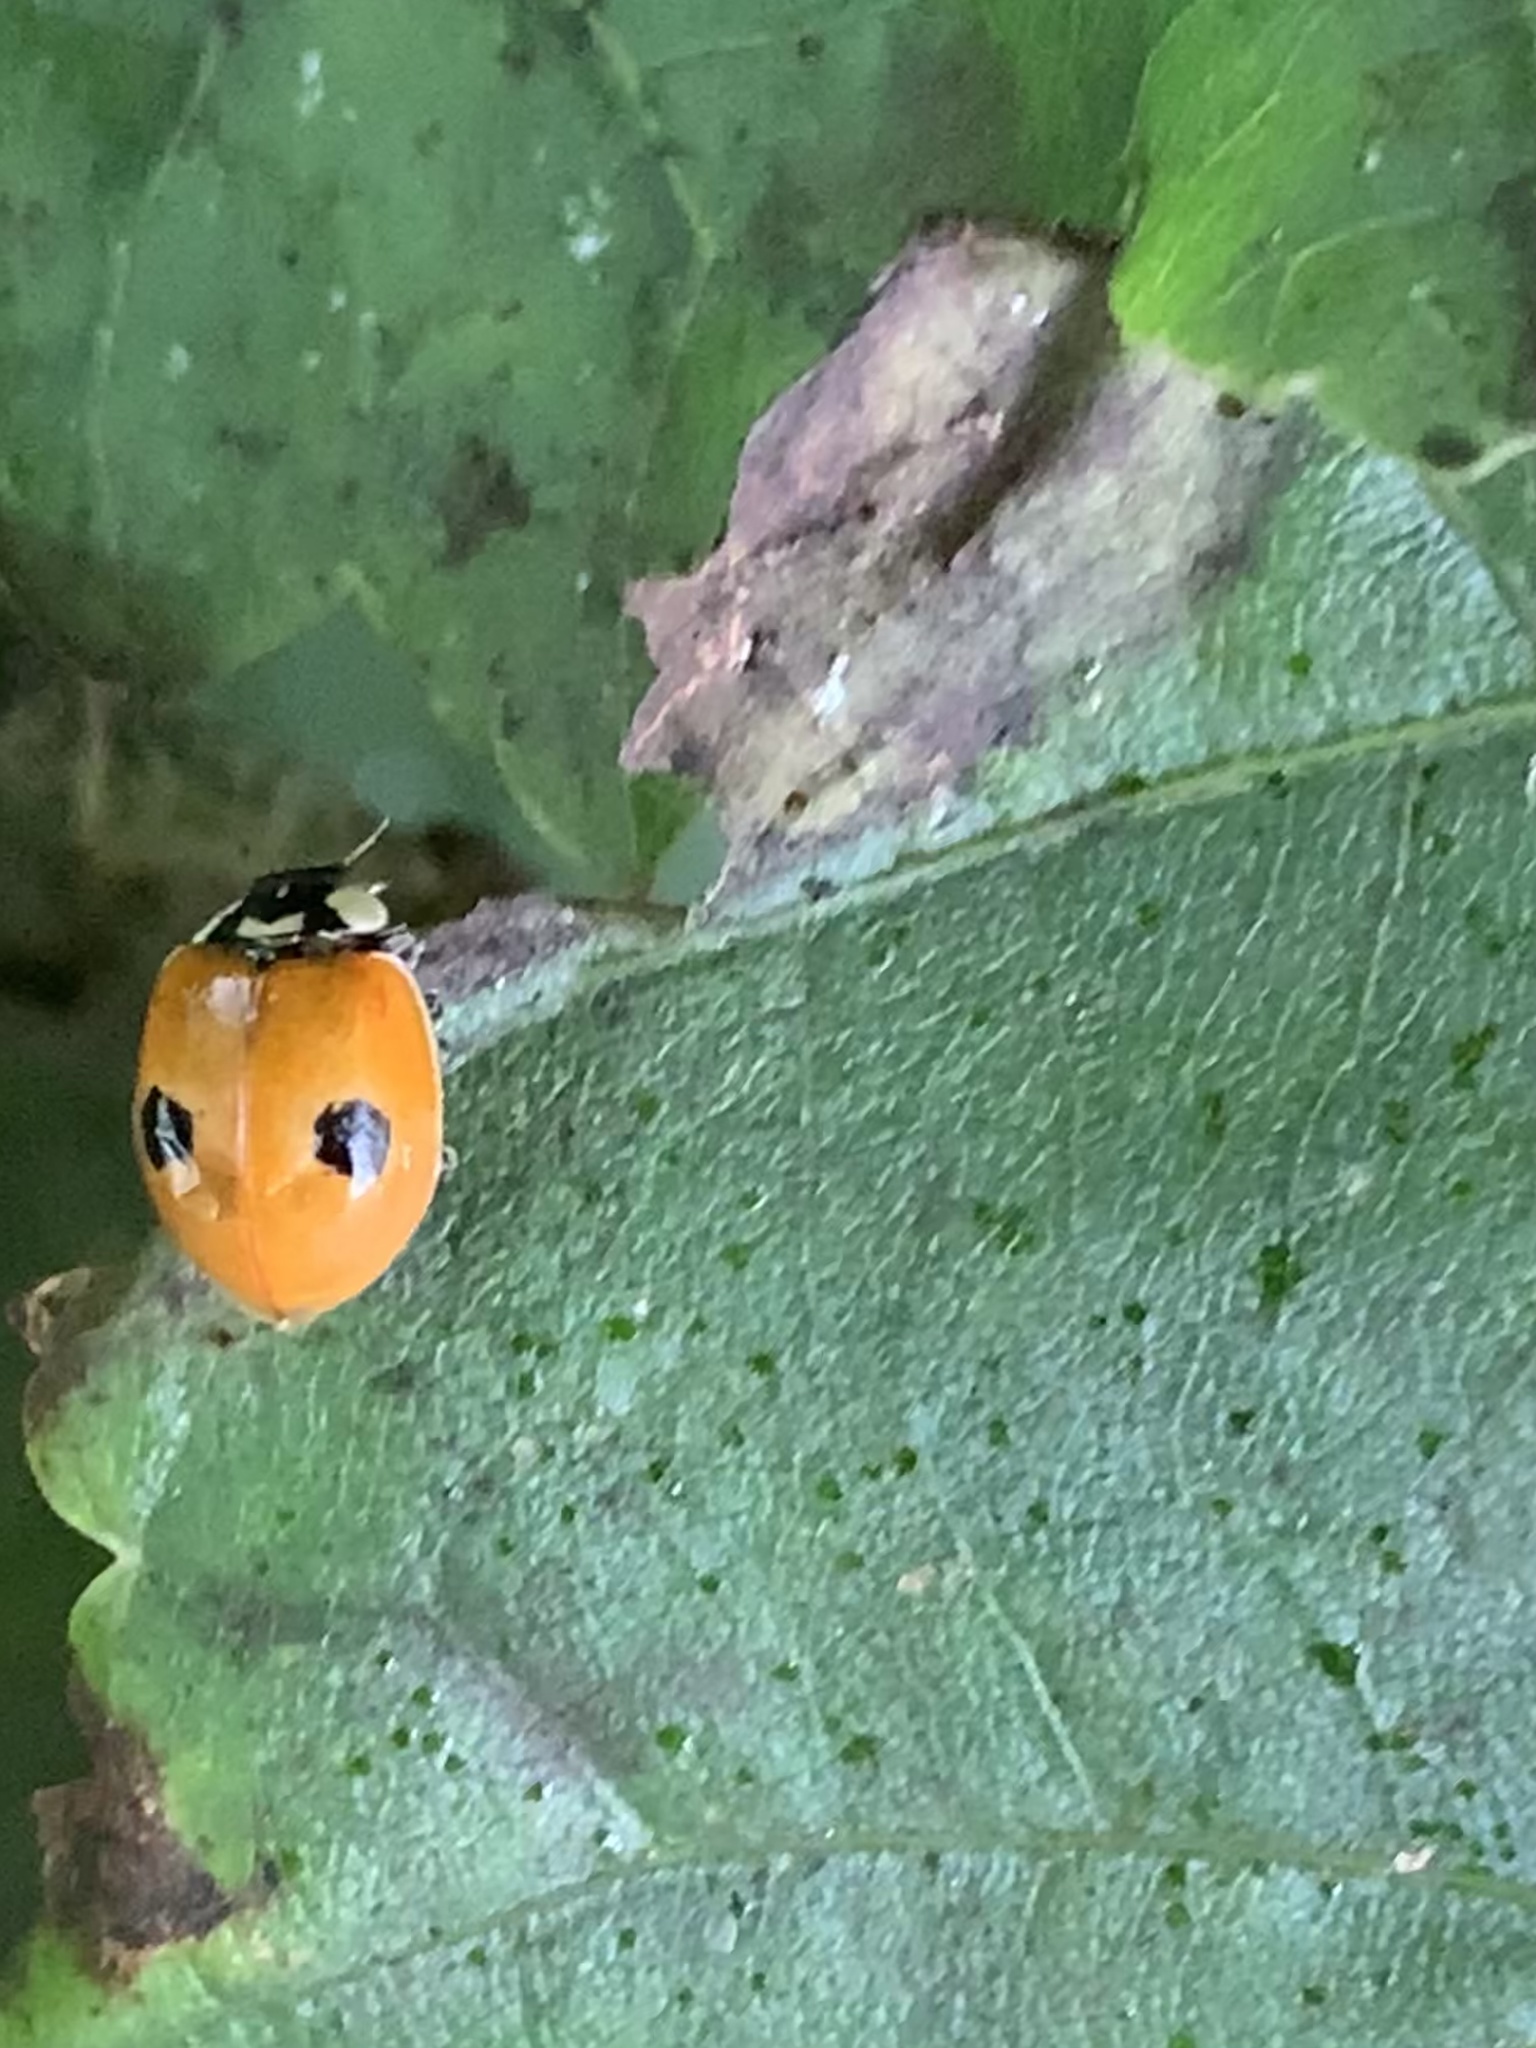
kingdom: Animalia
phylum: Arthropoda
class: Insecta
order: Coleoptera
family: Coccinellidae
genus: Adalia
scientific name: Adalia bipunctata
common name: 2-spot ladybird
